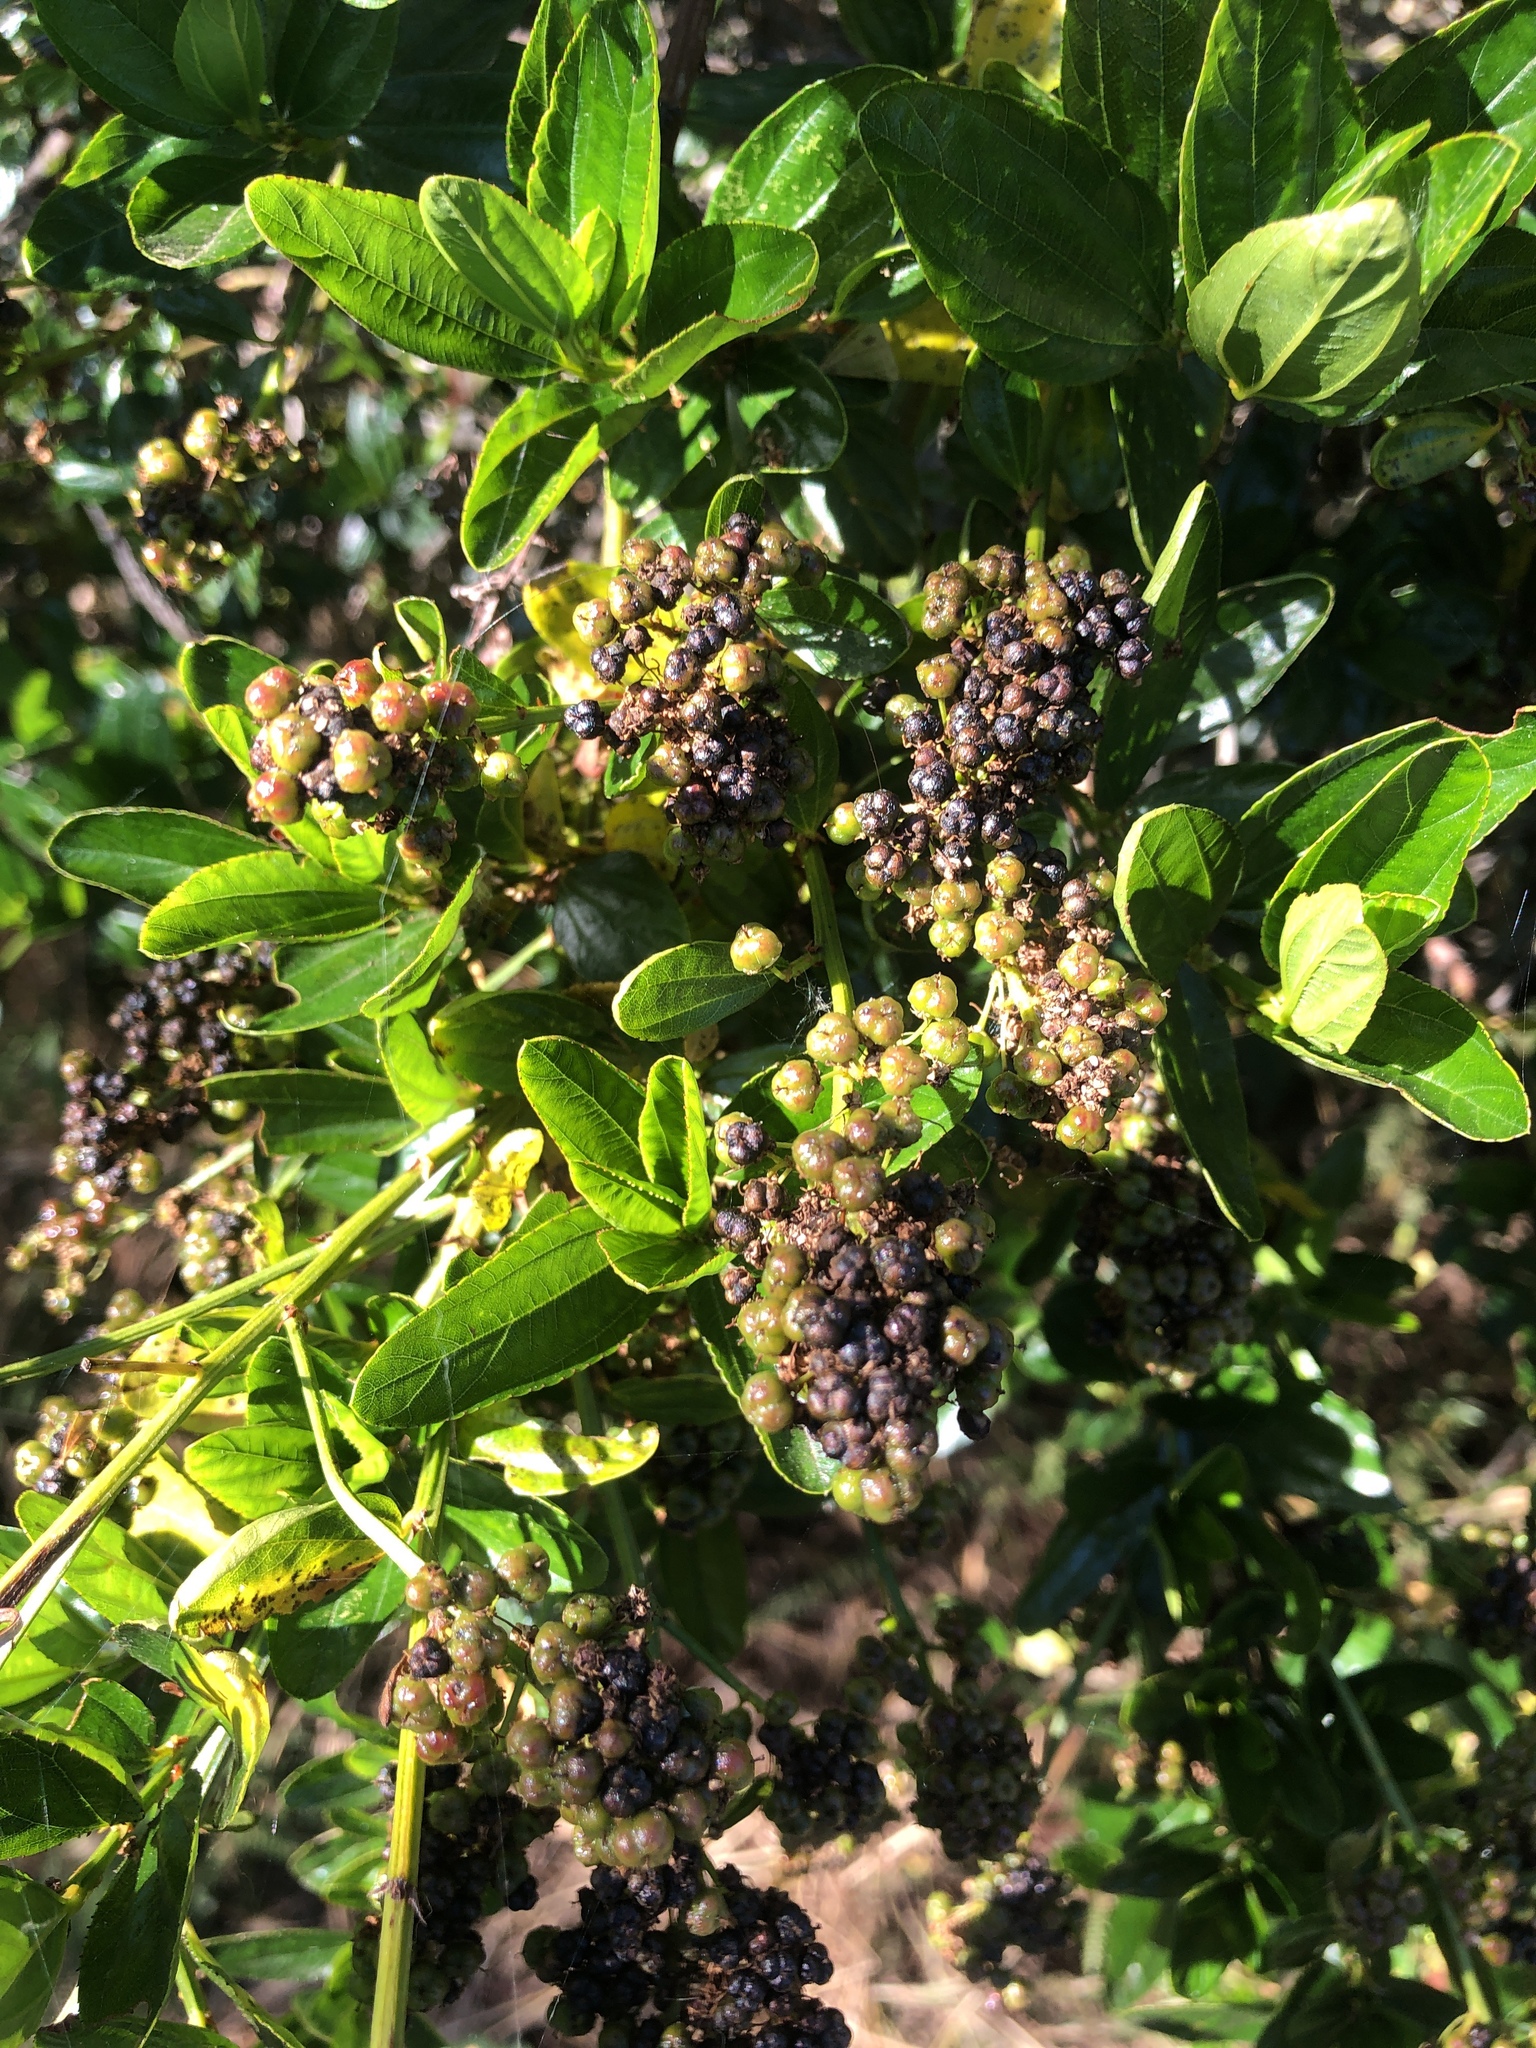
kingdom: Plantae
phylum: Tracheophyta
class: Magnoliopsida
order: Rosales
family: Rhamnaceae
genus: Ceanothus
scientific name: Ceanothus thyrsiflorus
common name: California-lilac
